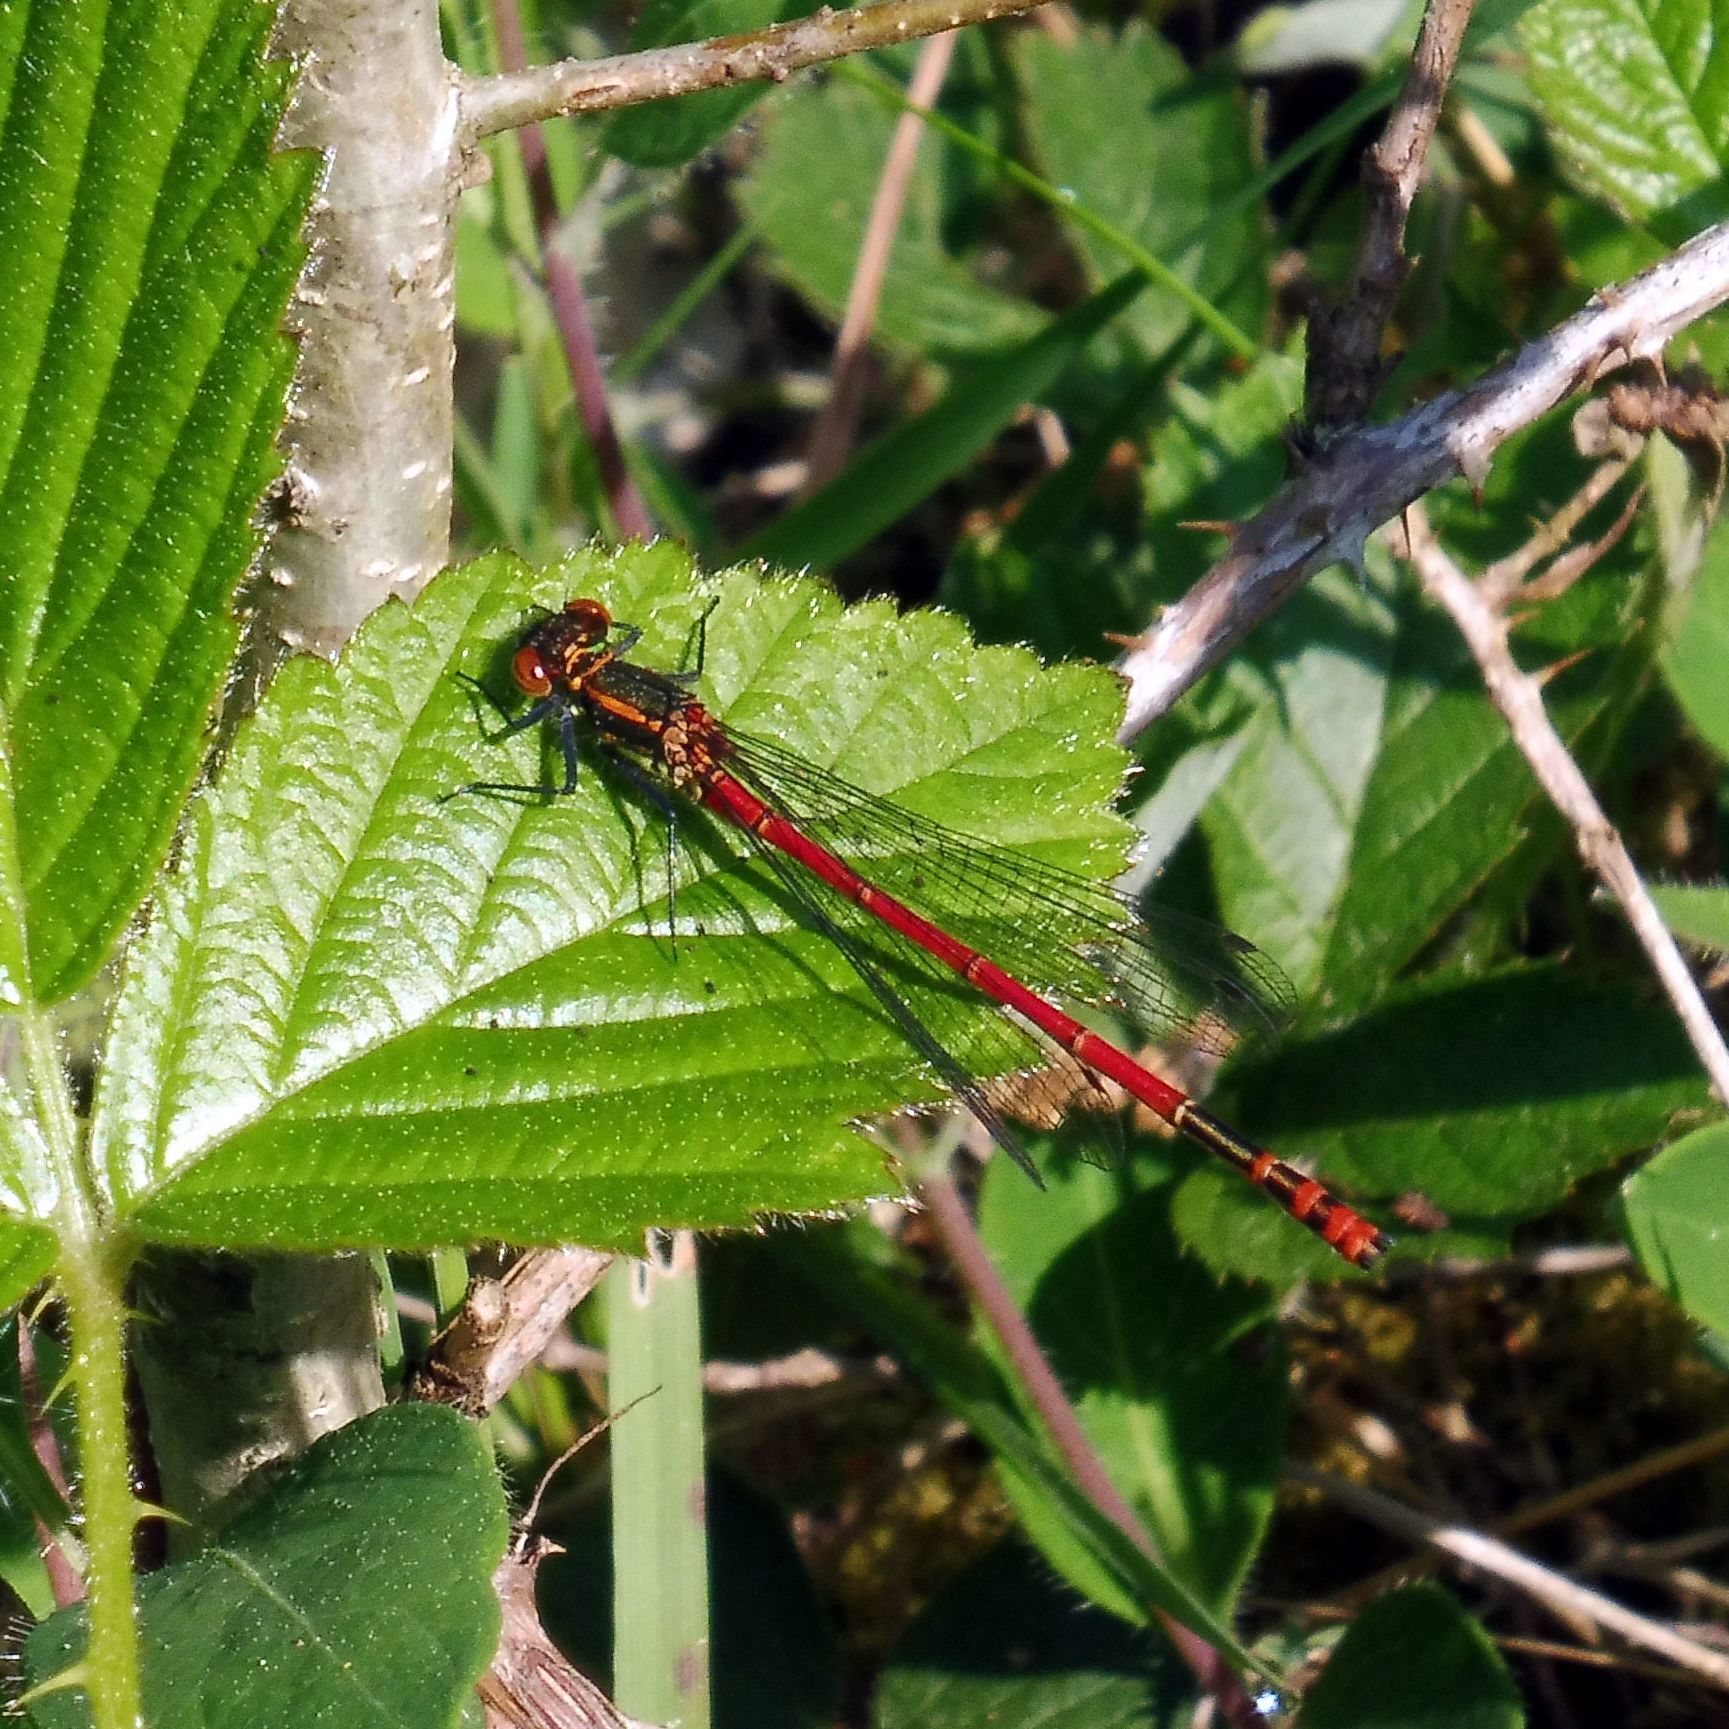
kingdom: Animalia
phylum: Arthropoda
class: Insecta
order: Odonata
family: Coenagrionidae
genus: Pyrrhosoma
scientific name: Pyrrhosoma nymphula
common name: Large red damsel
